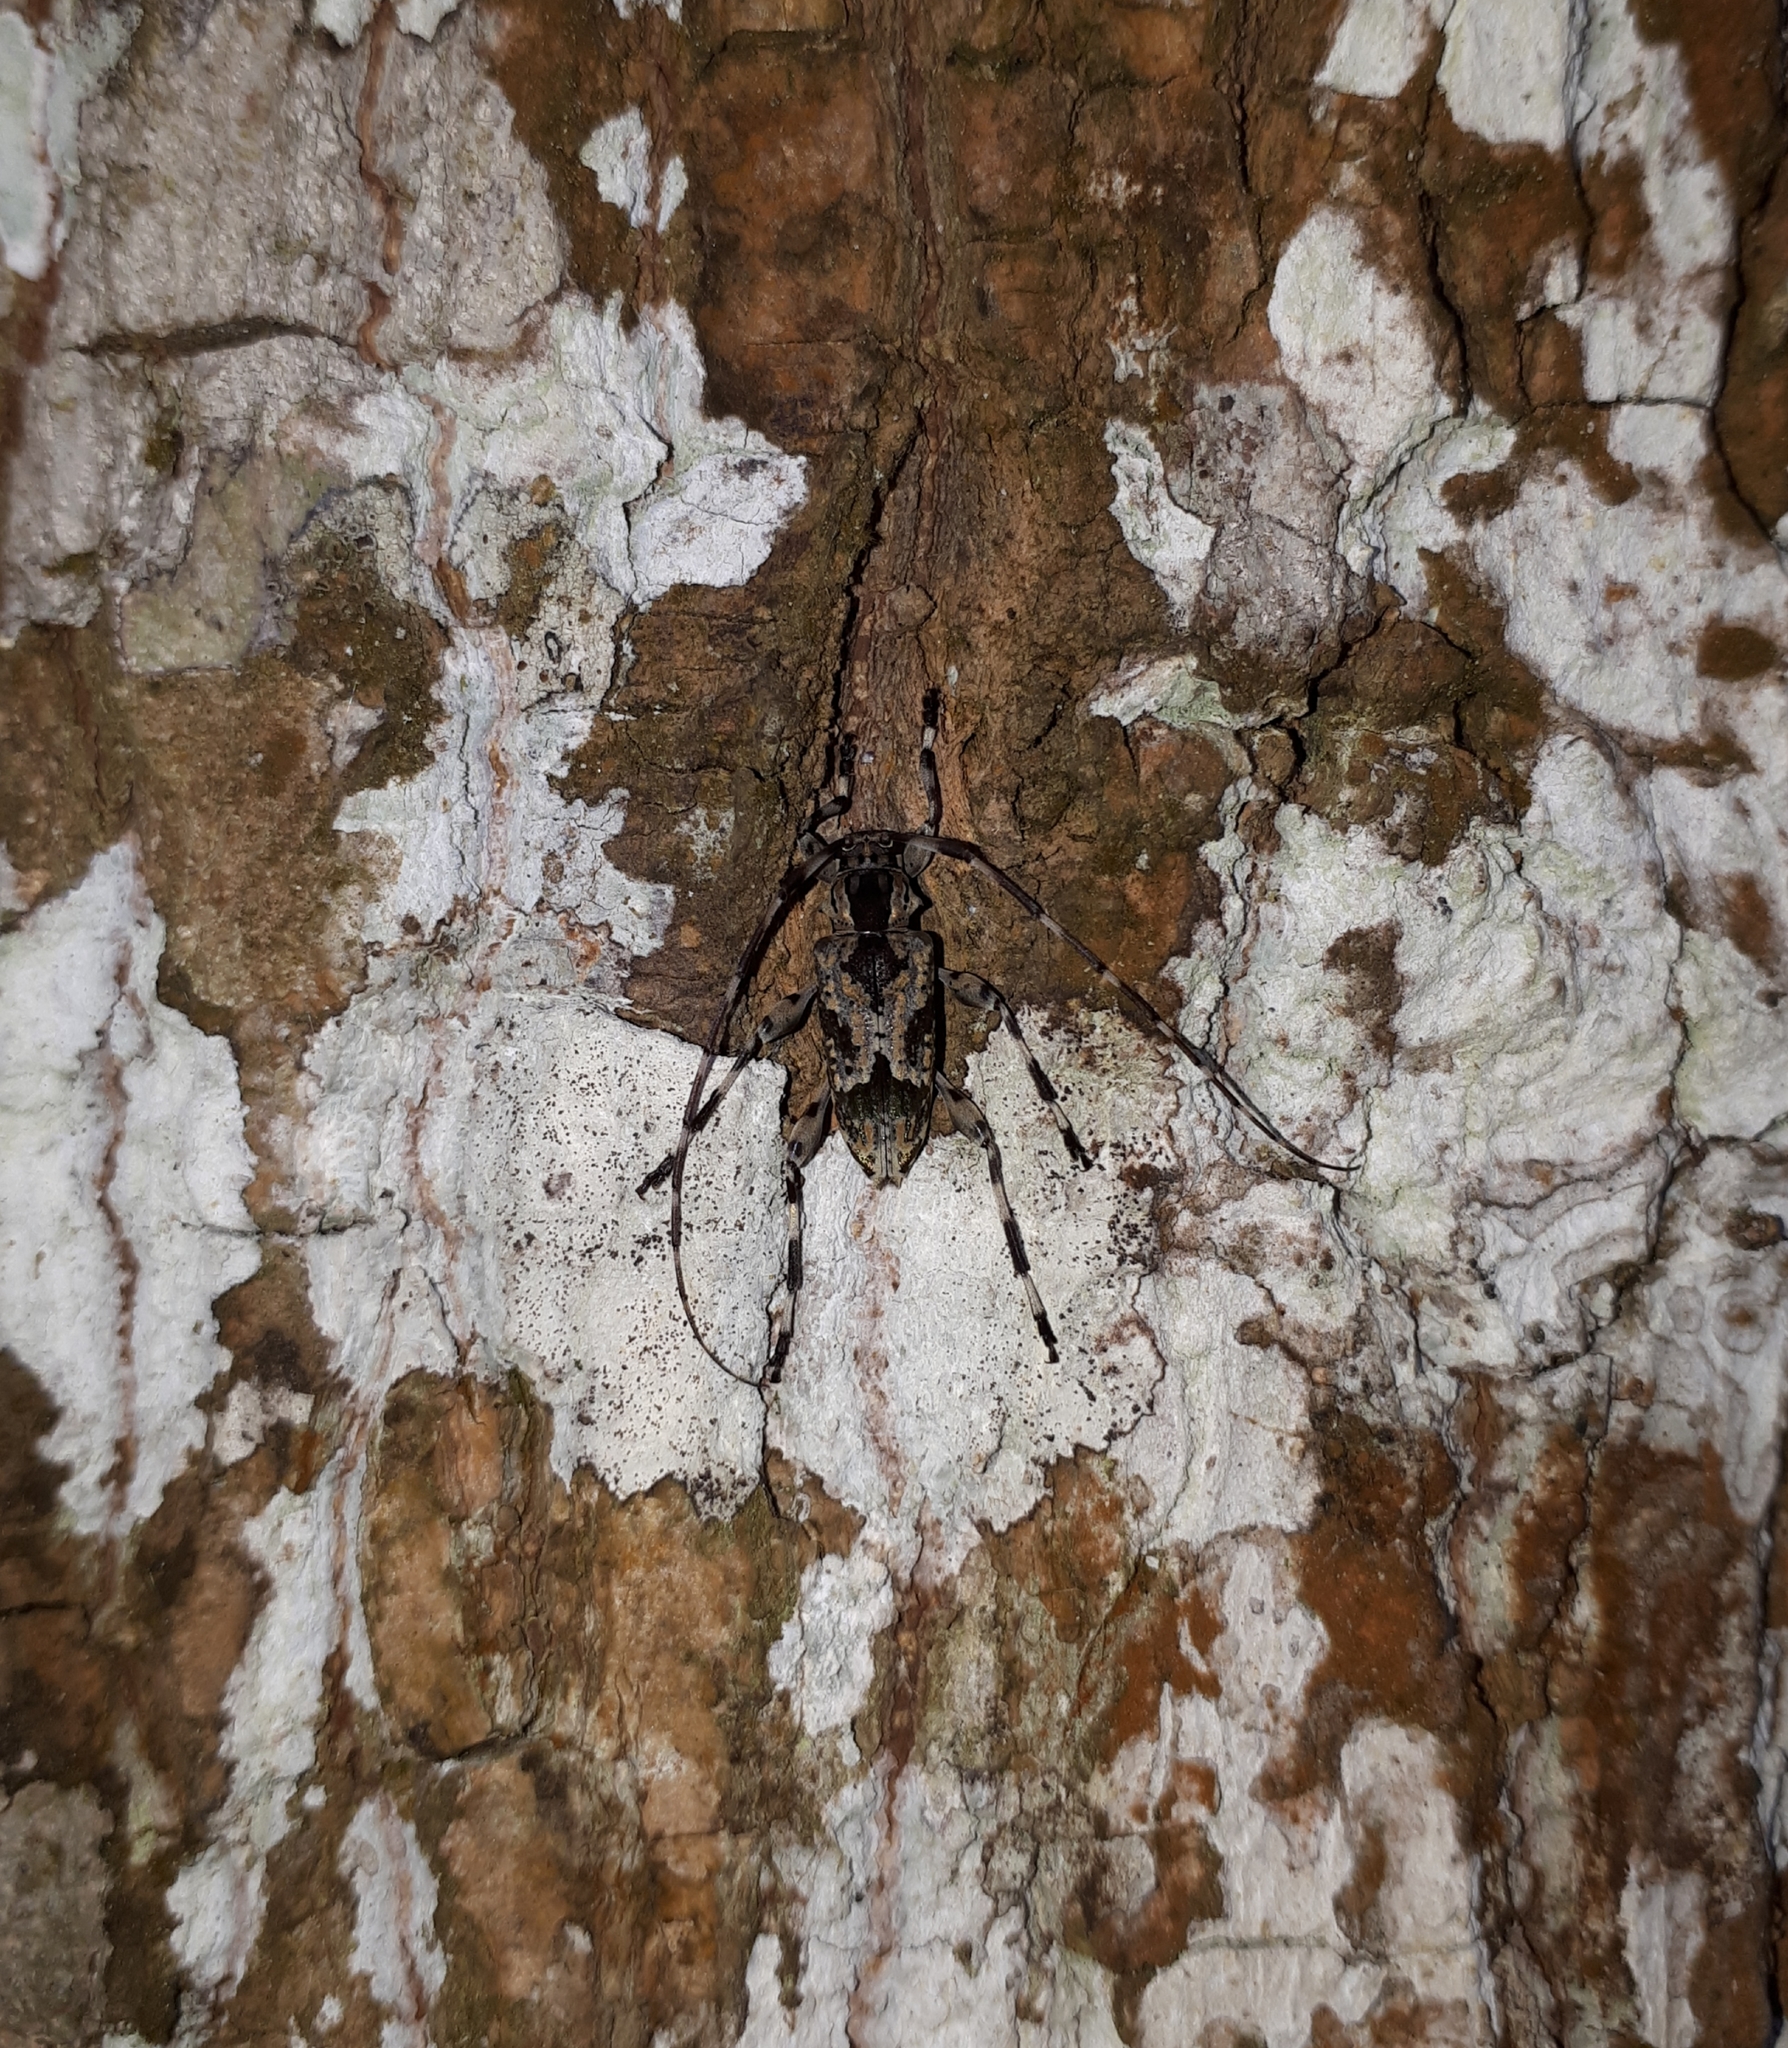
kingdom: Animalia
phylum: Arthropoda
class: Insecta
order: Coleoptera
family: Cerambycidae
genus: Eutrypanus
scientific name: Eutrypanus dorsalis
